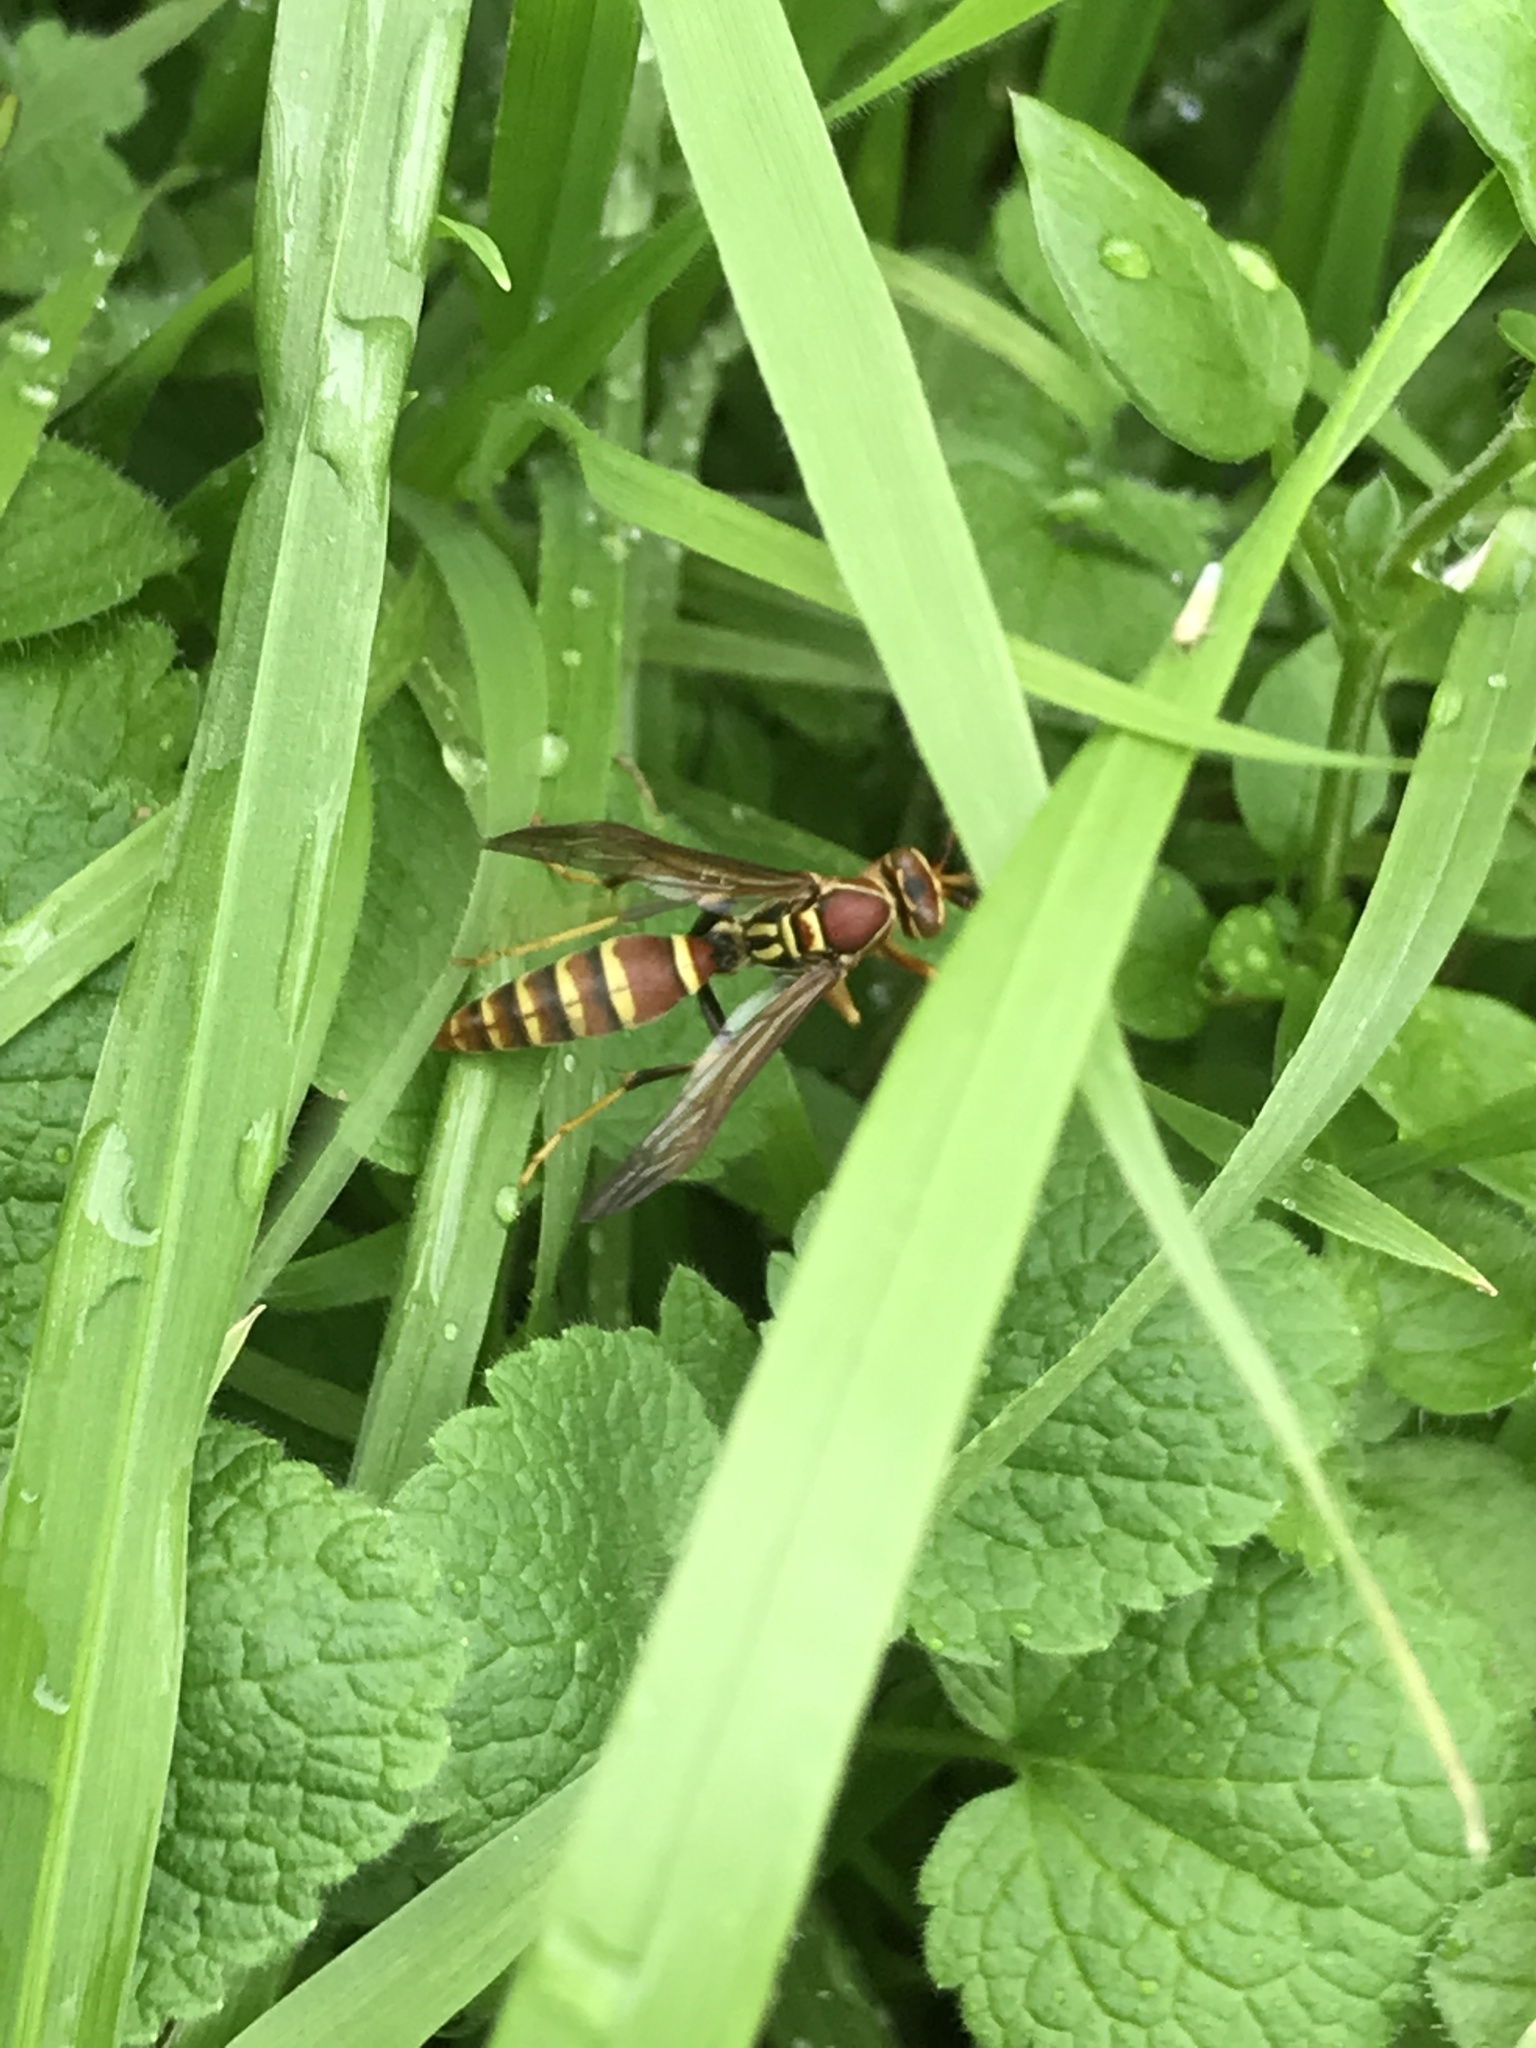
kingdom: Animalia
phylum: Arthropoda
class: Insecta
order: Hymenoptera
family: Eumenidae
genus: Polistes
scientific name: Polistes exclamans
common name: Paper wasp
